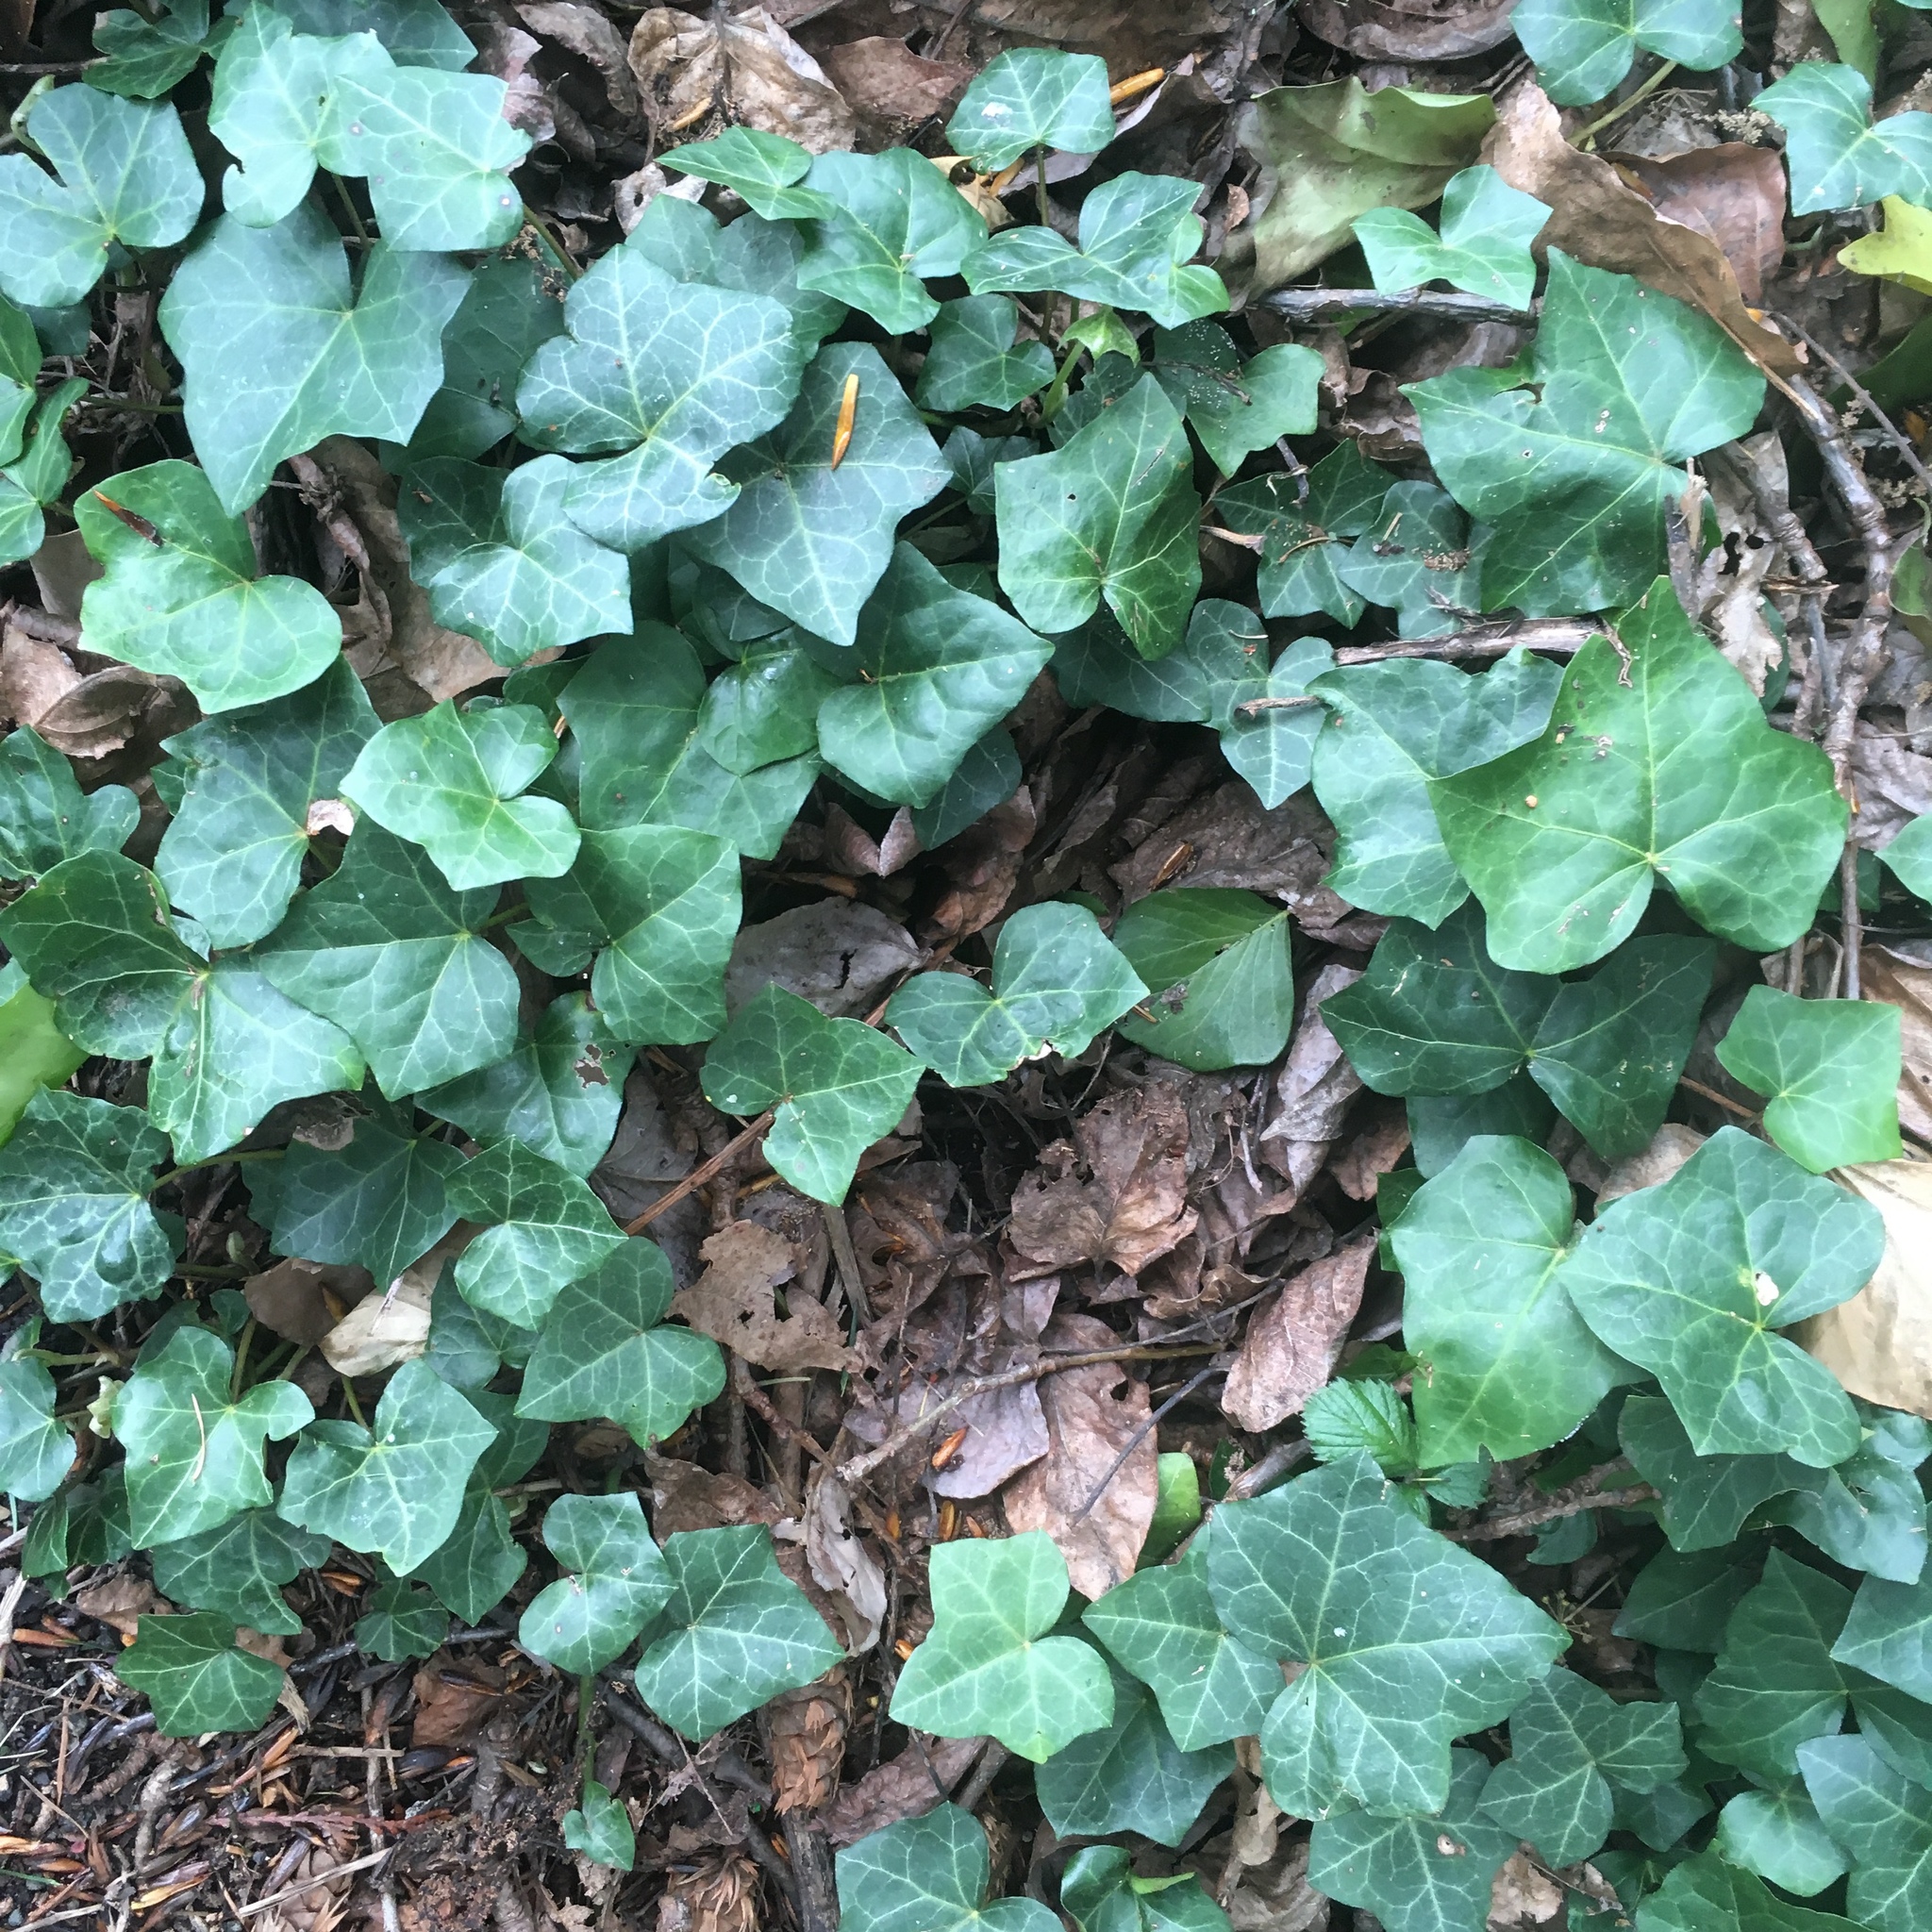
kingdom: Plantae
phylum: Tracheophyta
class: Magnoliopsida
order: Apiales
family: Araliaceae
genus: Hedera
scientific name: Hedera helix
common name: Ivy
